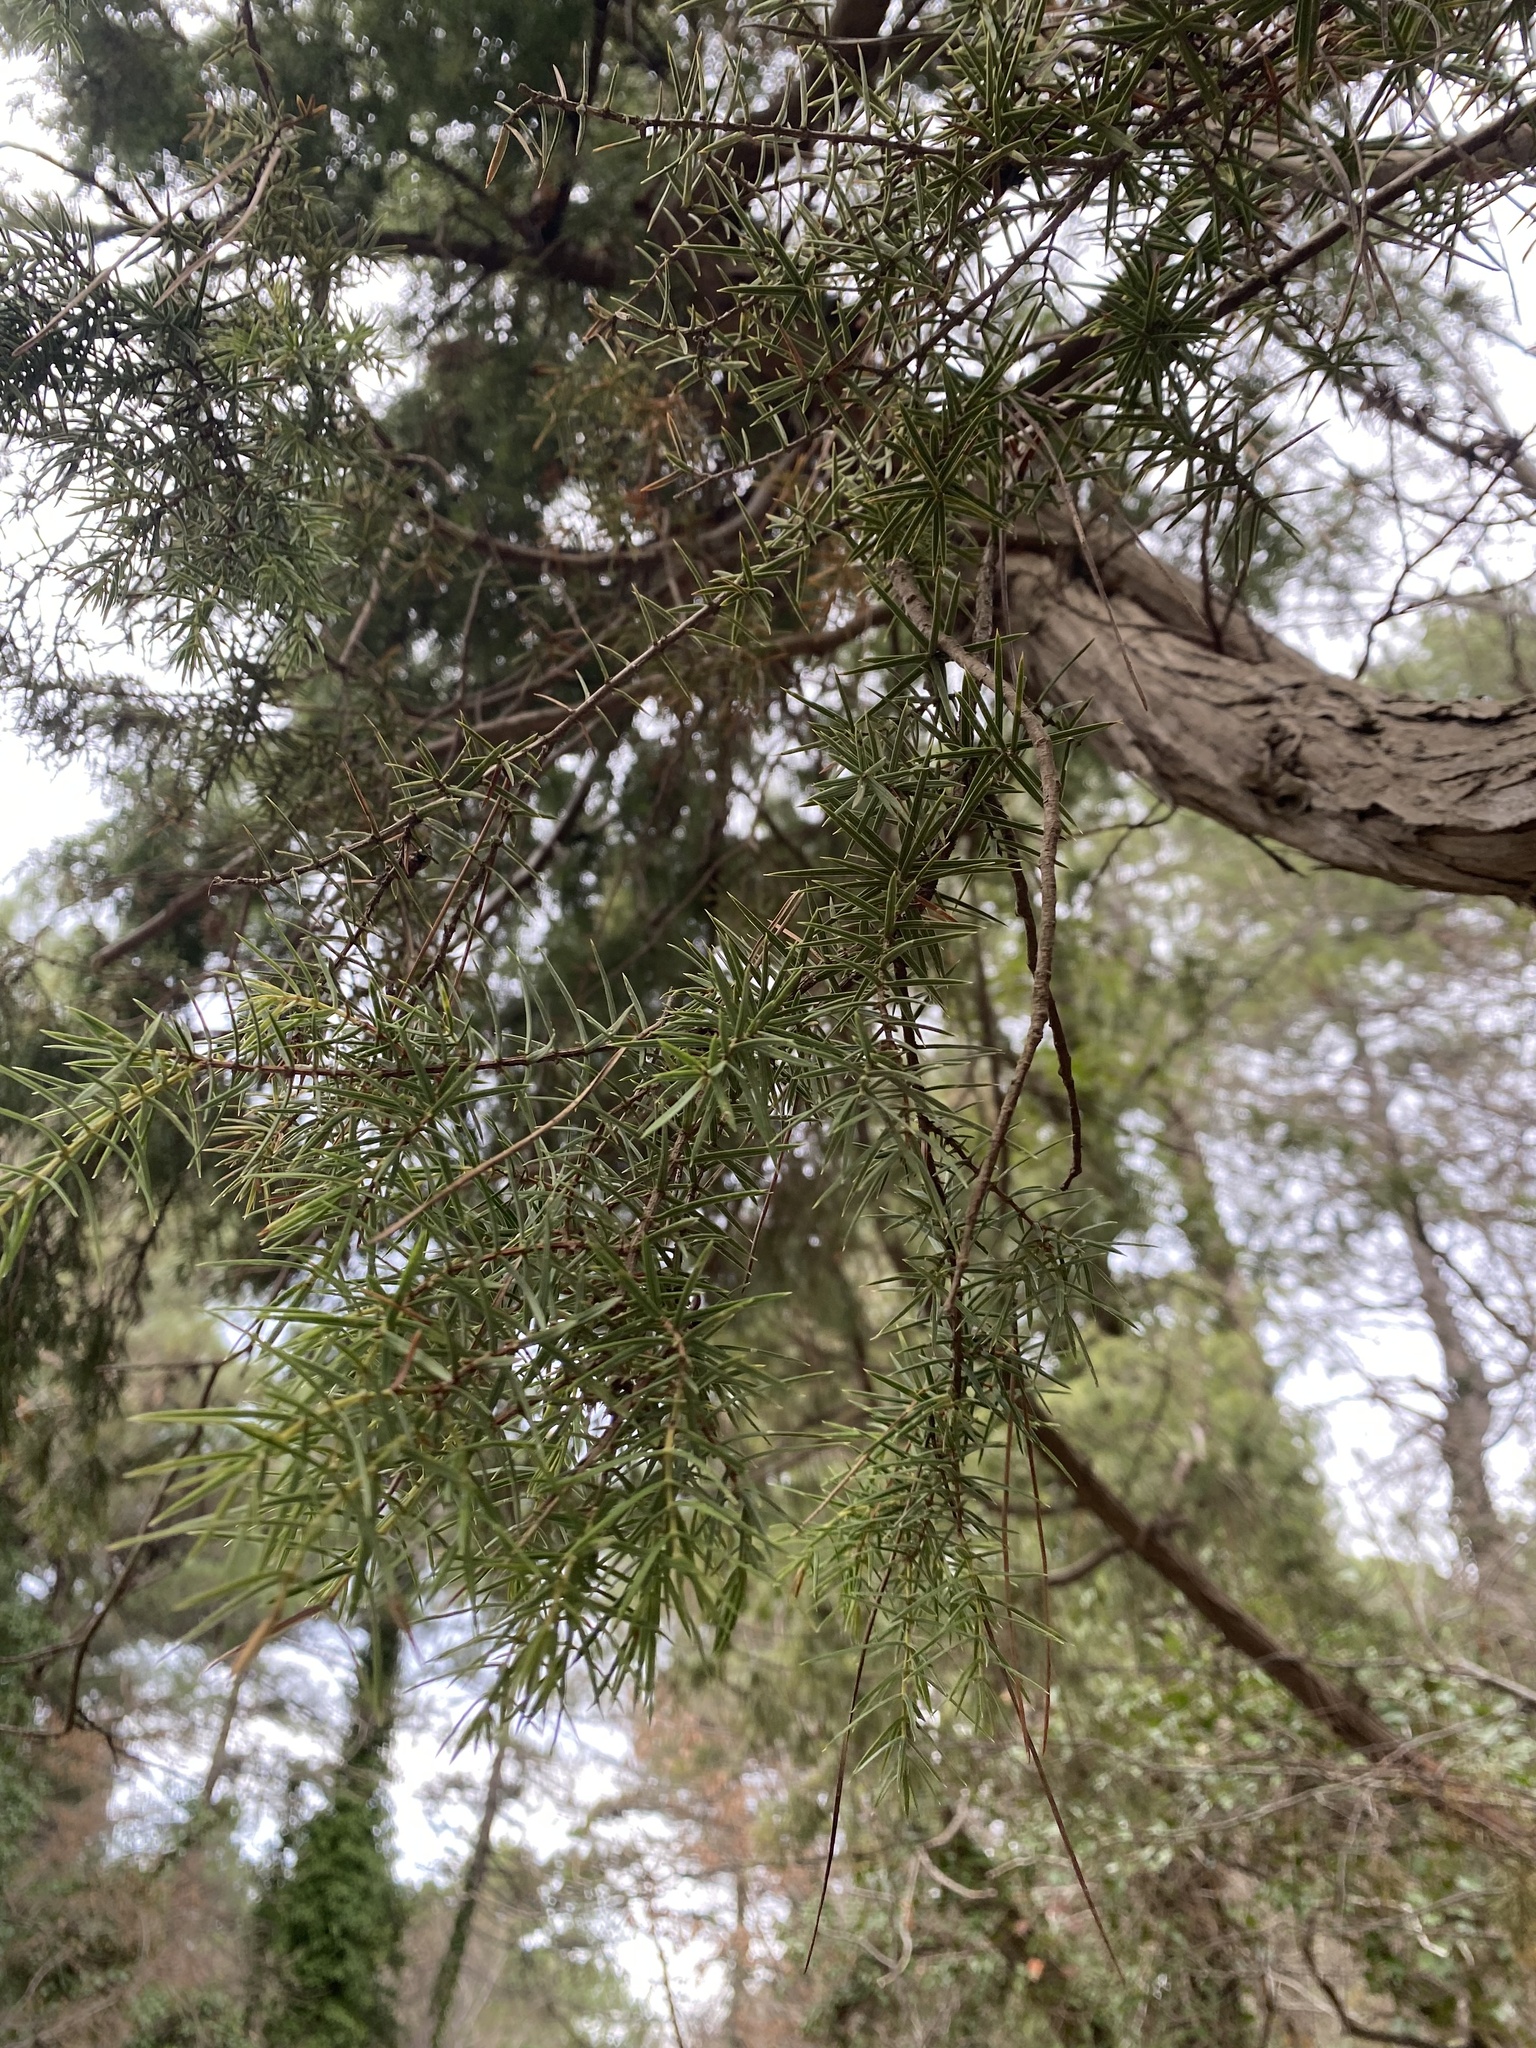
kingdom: Plantae
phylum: Tracheophyta
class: Pinopsida
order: Pinales
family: Cupressaceae
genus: Juniperus
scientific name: Juniperus oxycedrus
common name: Prickly juniper
